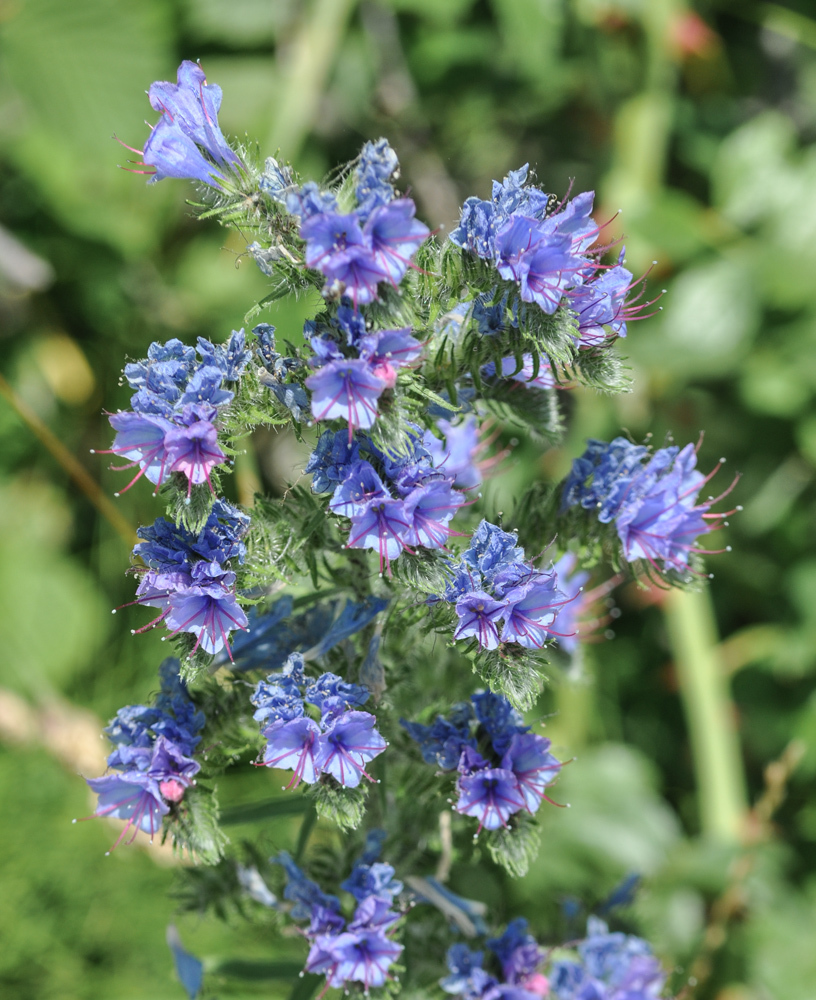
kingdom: Plantae
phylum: Tracheophyta
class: Magnoliopsida
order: Boraginales
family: Boraginaceae
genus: Echium
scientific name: Echium vulgare
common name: Common viper's bugloss
